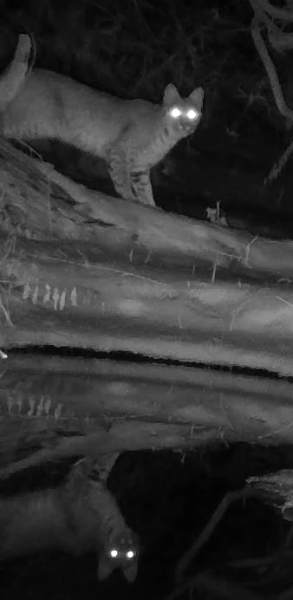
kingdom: Animalia
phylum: Chordata
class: Mammalia
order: Carnivora
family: Felidae
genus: Lynx
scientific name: Lynx rufus
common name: Bobcat
